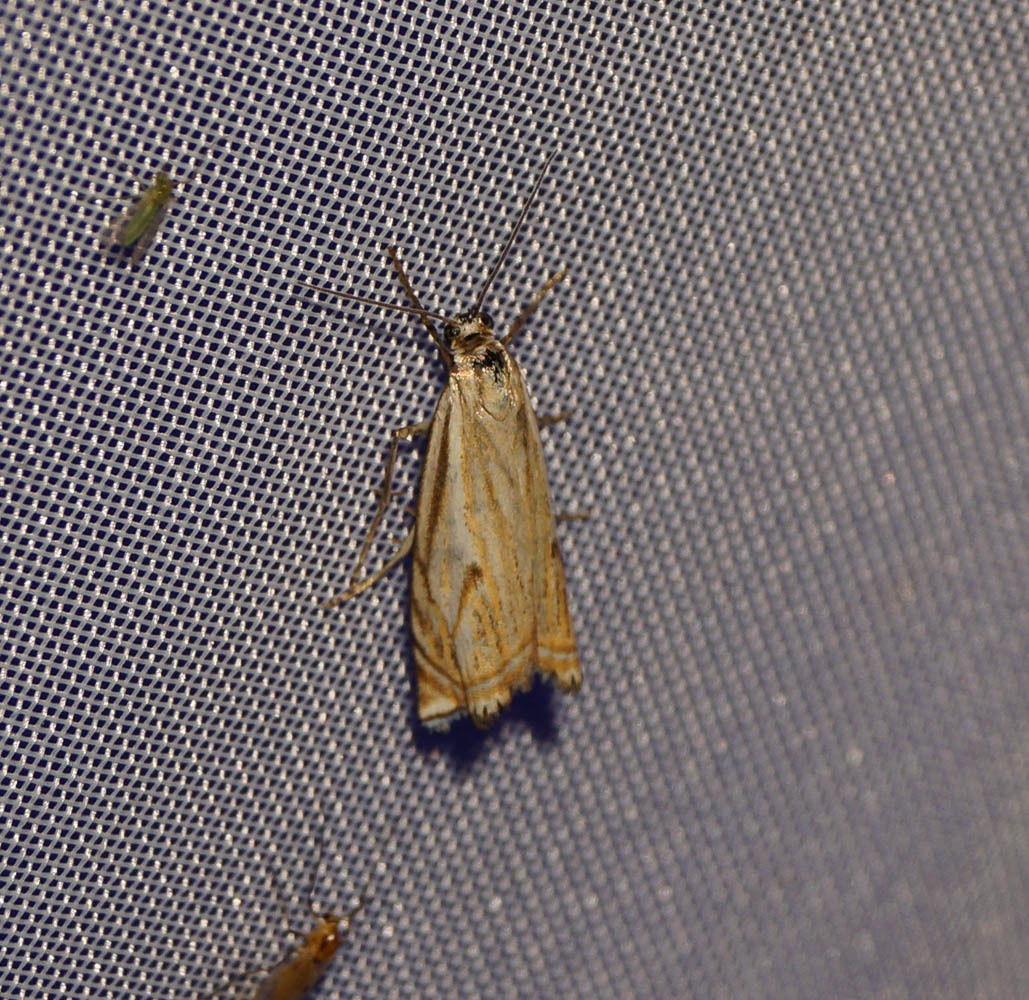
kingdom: Animalia
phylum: Arthropoda
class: Insecta
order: Lepidoptera
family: Crambidae
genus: Crambus
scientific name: Crambus nemorella
